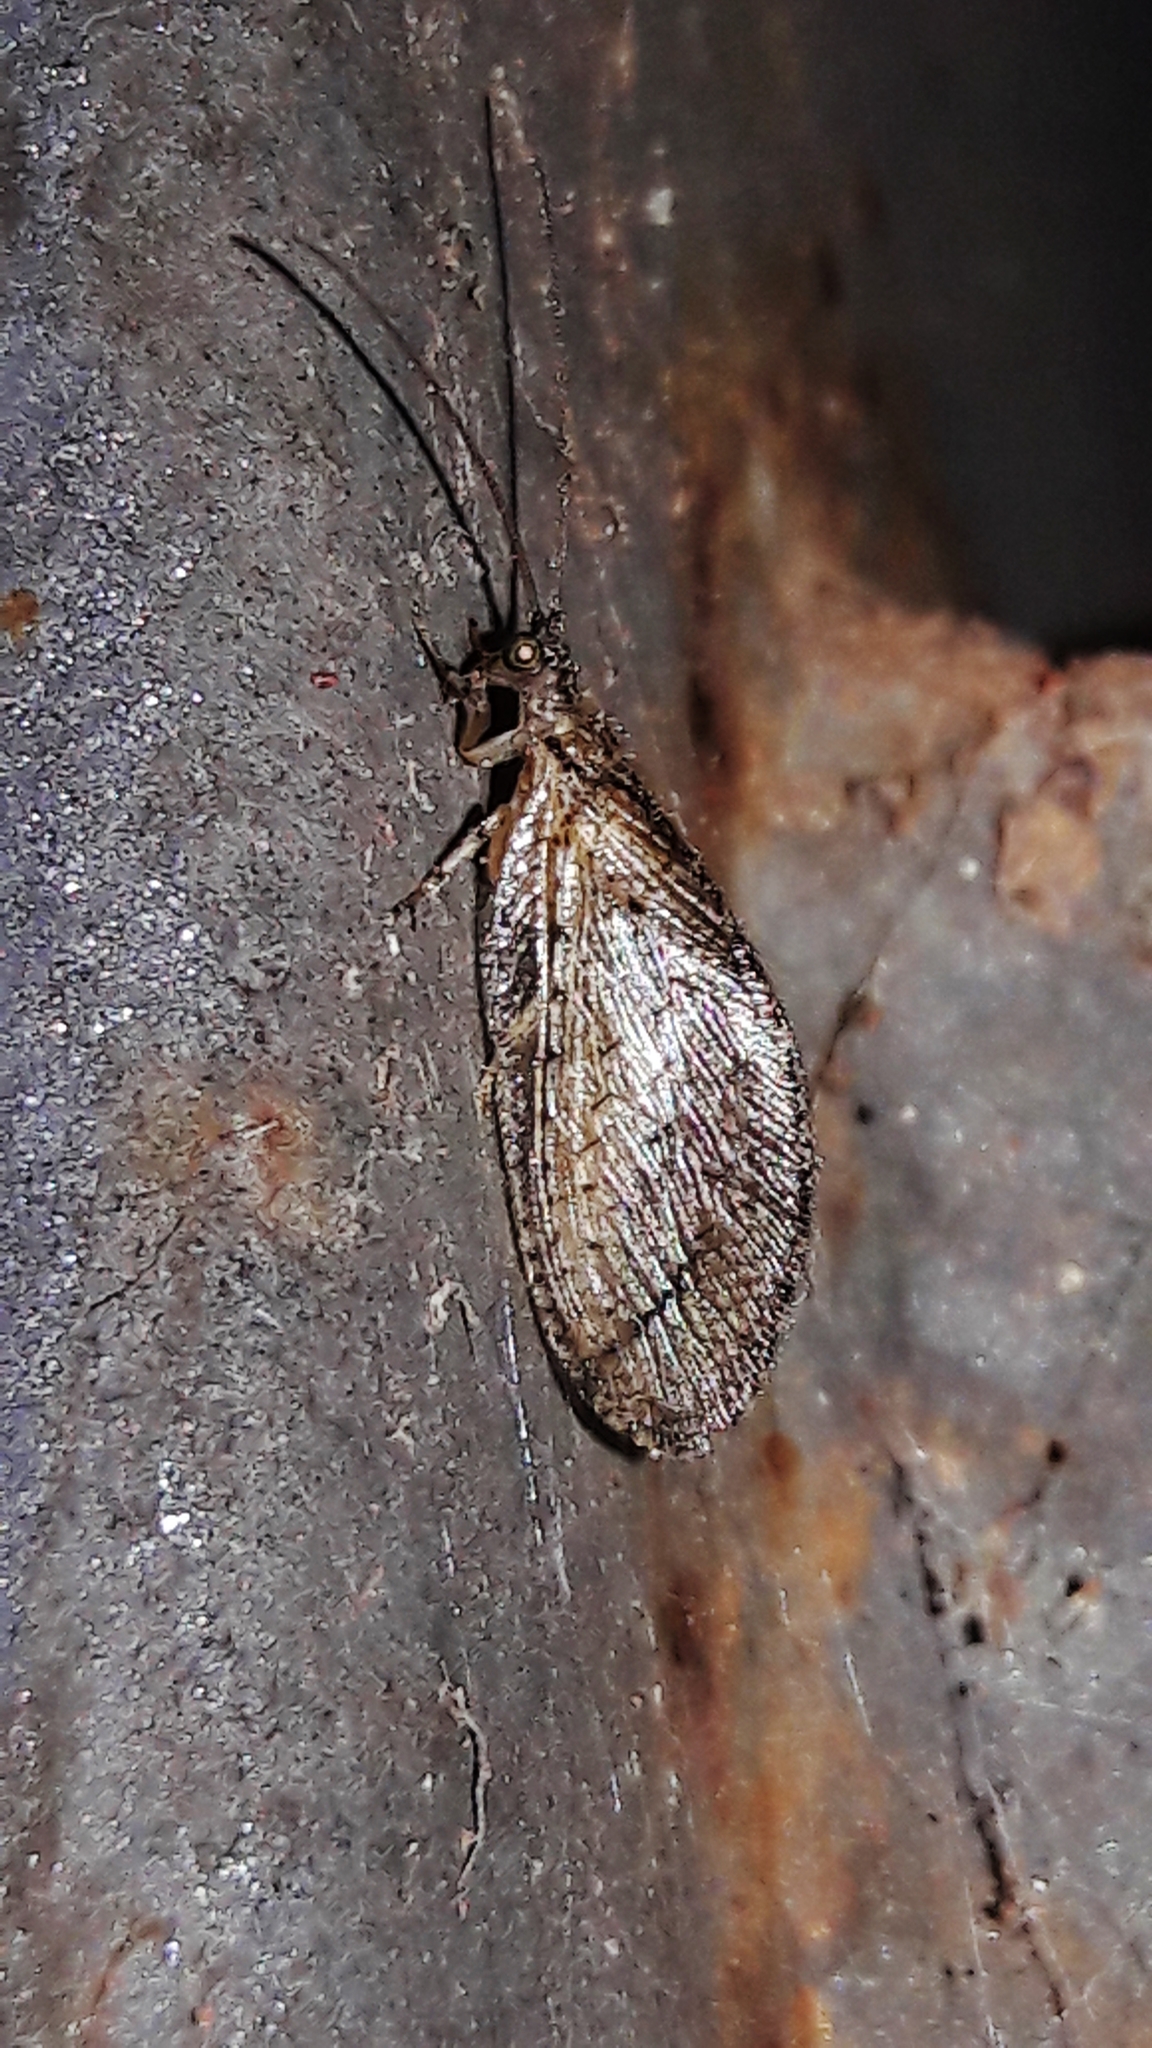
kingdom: Animalia
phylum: Arthropoda
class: Insecta
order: Neuroptera
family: Hemerobiidae
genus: Nusalala
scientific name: Nusalala tessellata
